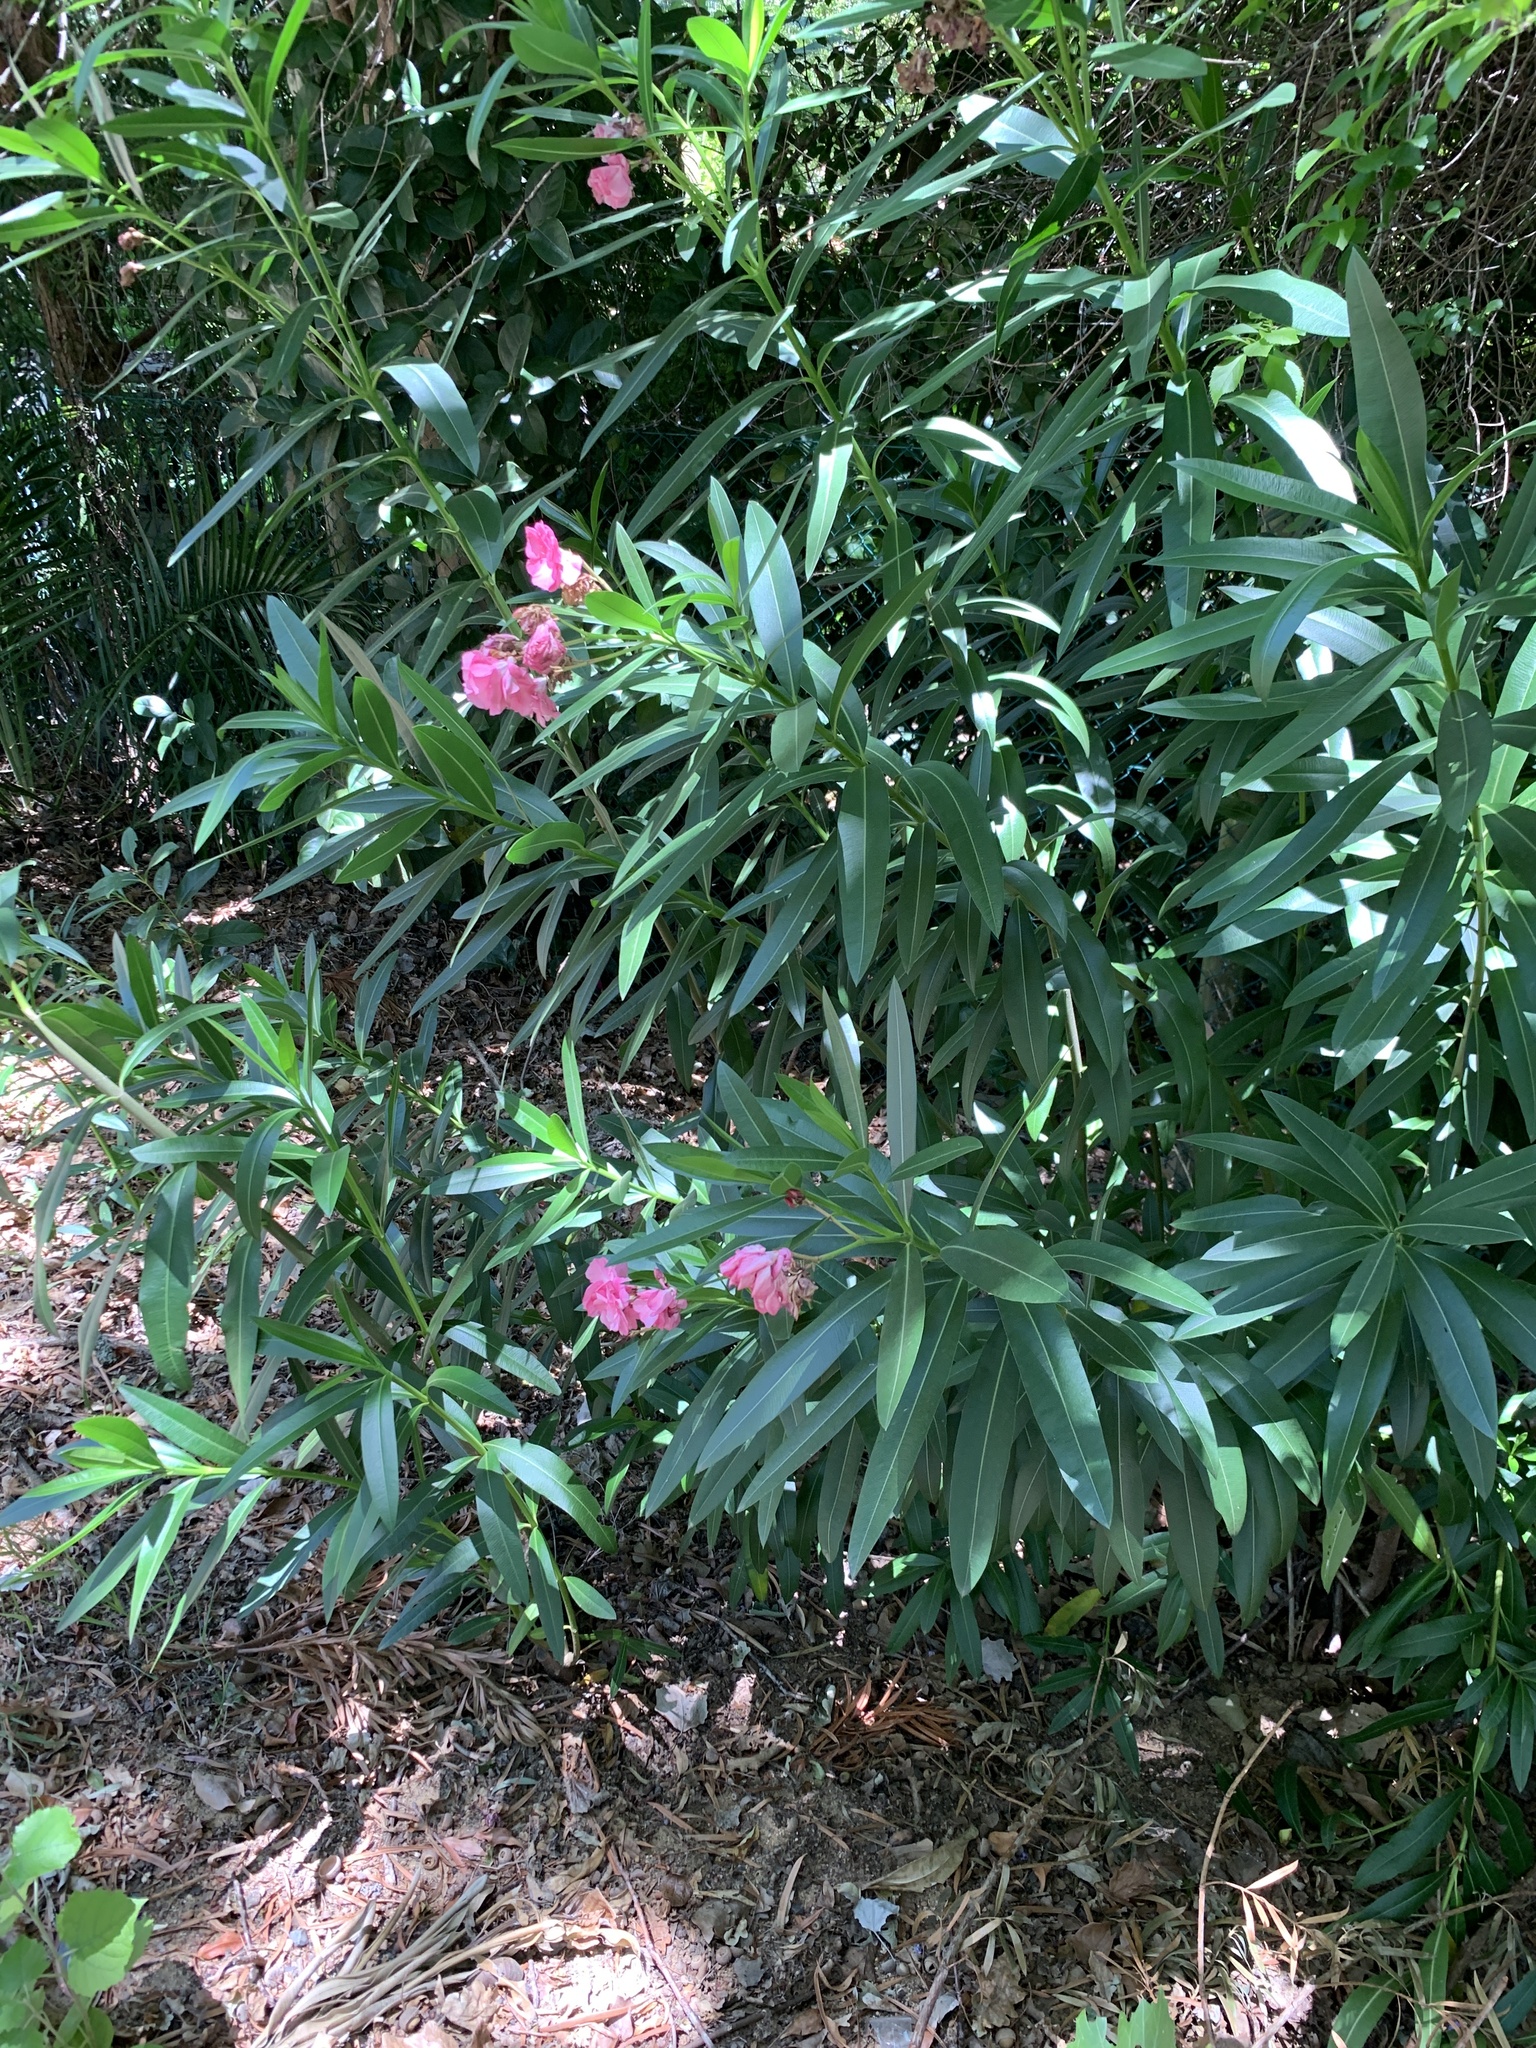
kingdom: Plantae
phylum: Tracheophyta
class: Magnoliopsida
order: Gentianales
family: Apocynaceae
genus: Nerium
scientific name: Nerium oleander
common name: Oleander
